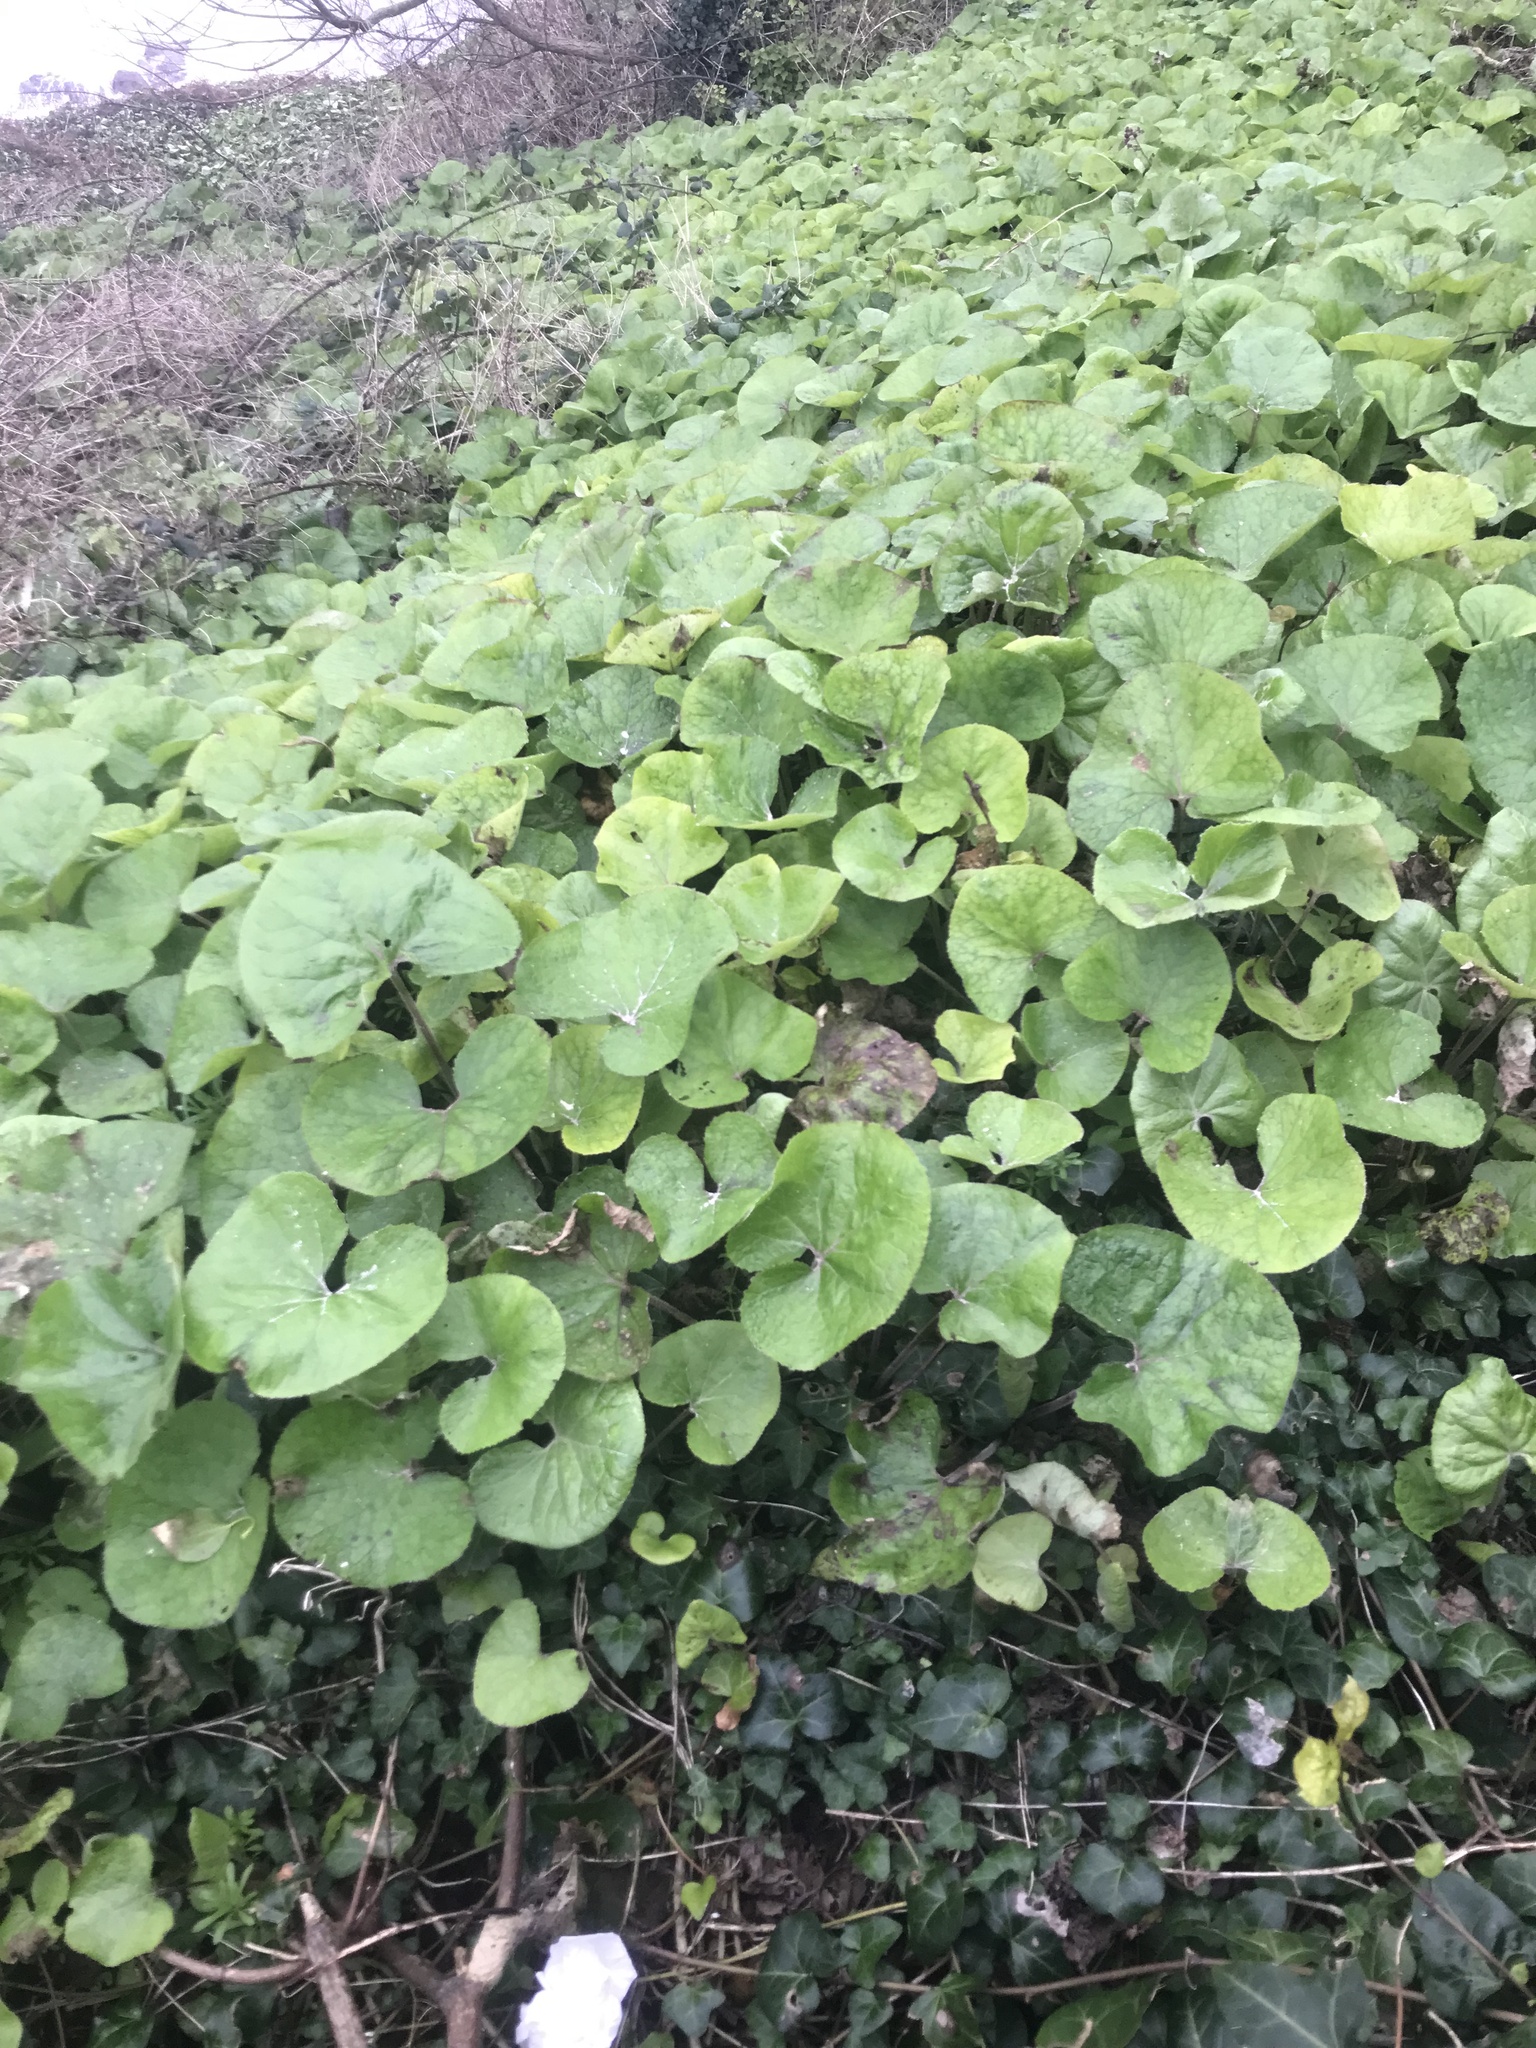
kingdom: Plantae
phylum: Tracheophyta
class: Magnoliopsida
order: Asterales
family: Asteraceae
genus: Petasites
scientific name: Petasites pyrenaicus
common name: Winter heliotrope
